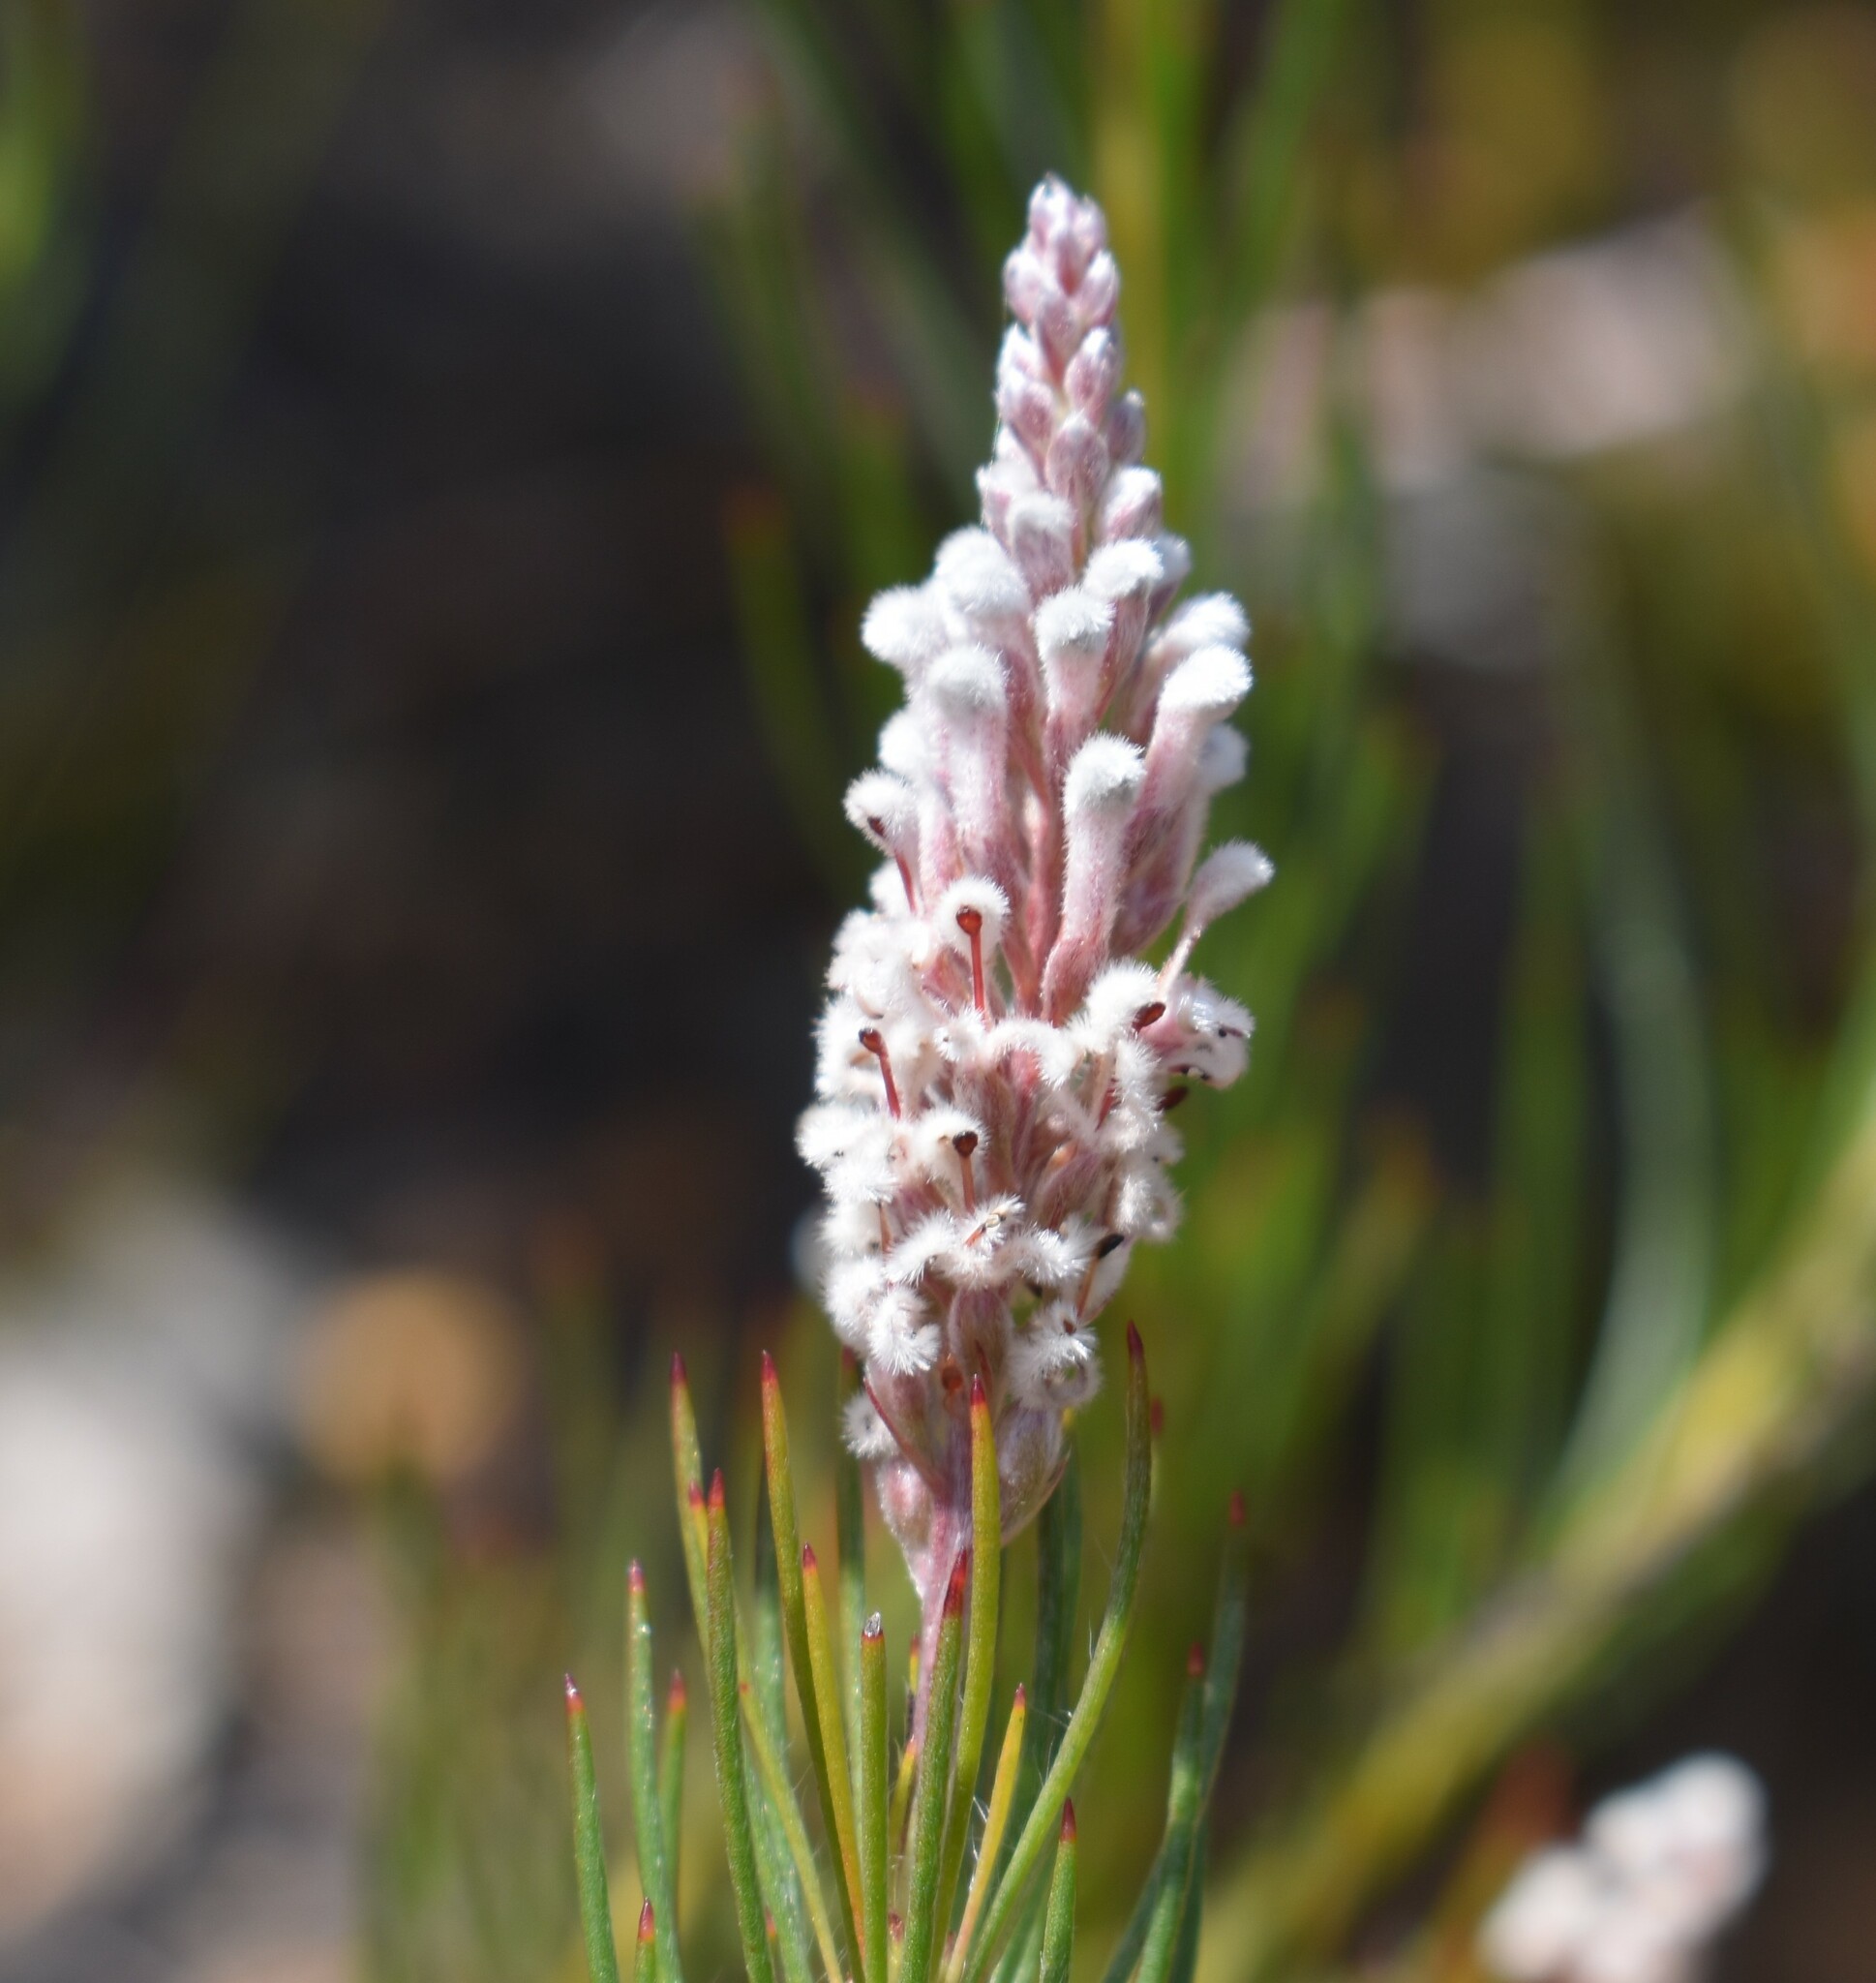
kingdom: Plantae
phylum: Tracheophyta
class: Magnoliopsida
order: Proteales
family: Proteaceae
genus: Spatalla
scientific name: Spatalla racemosa
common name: Lax-stalked spoon
